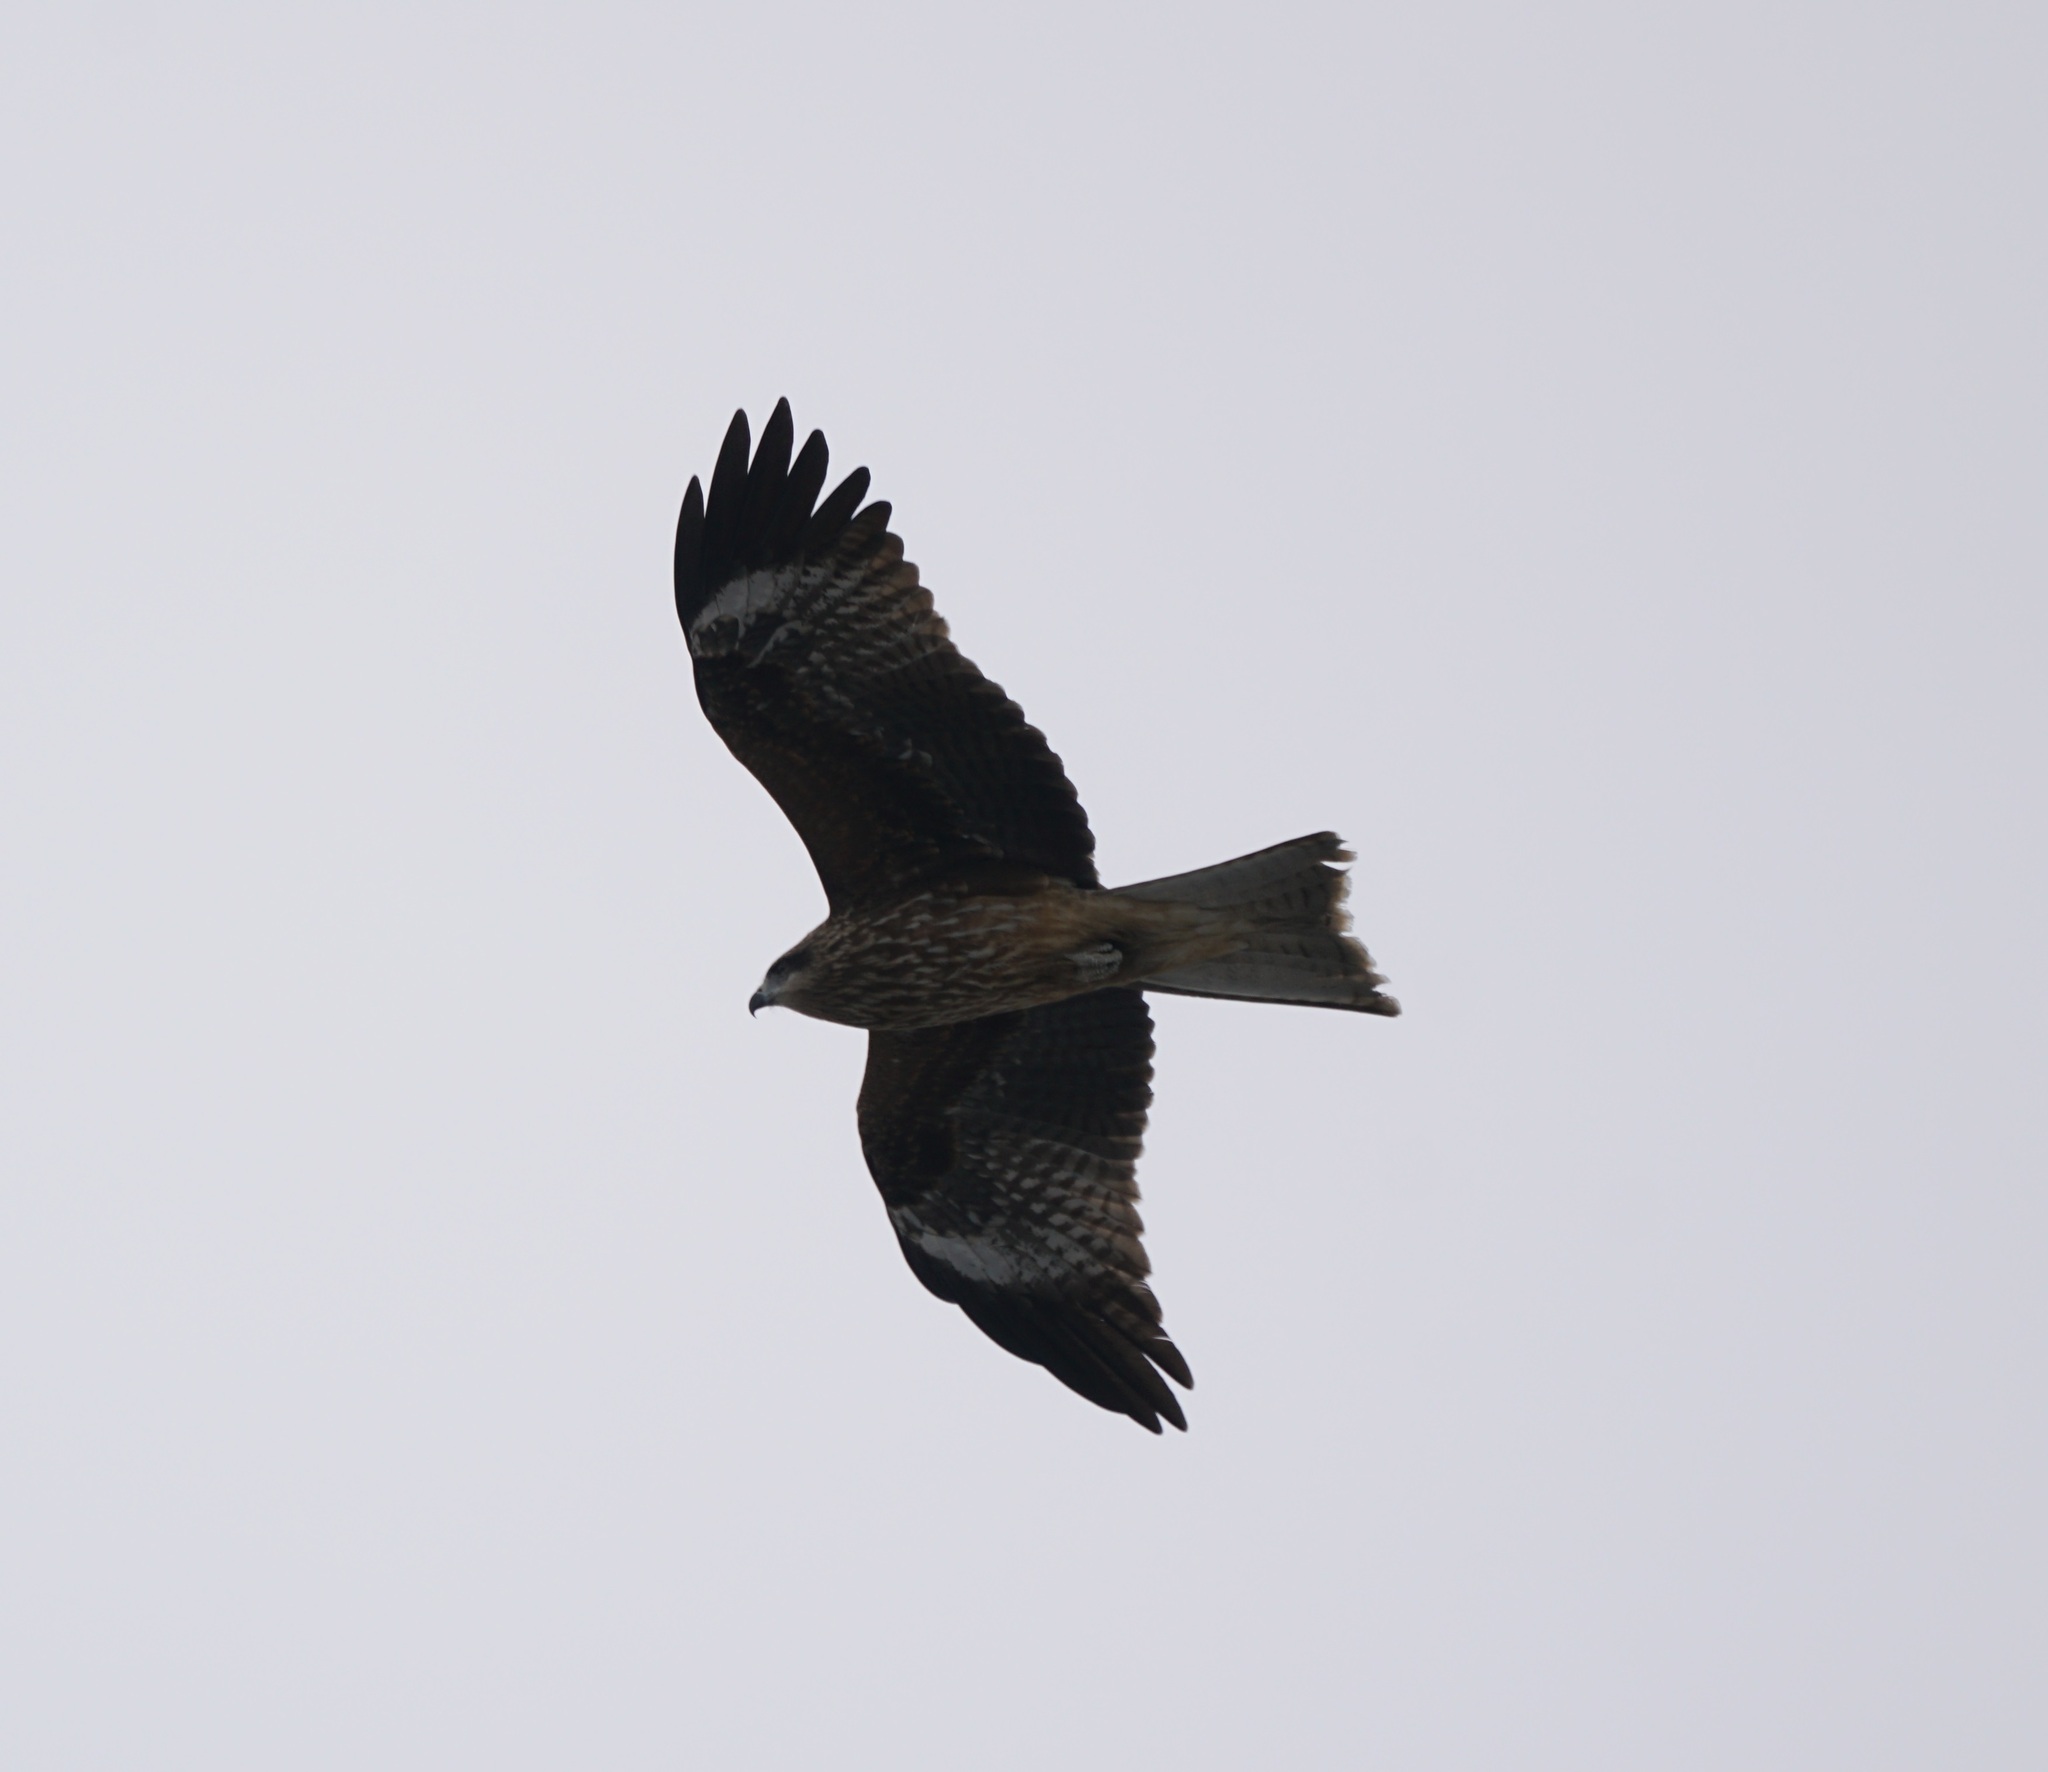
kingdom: Animalia
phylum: Chordata
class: Aves
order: Accipitriformes
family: Accipitridae
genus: Milvus
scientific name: Milvus migrans
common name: Black kite
